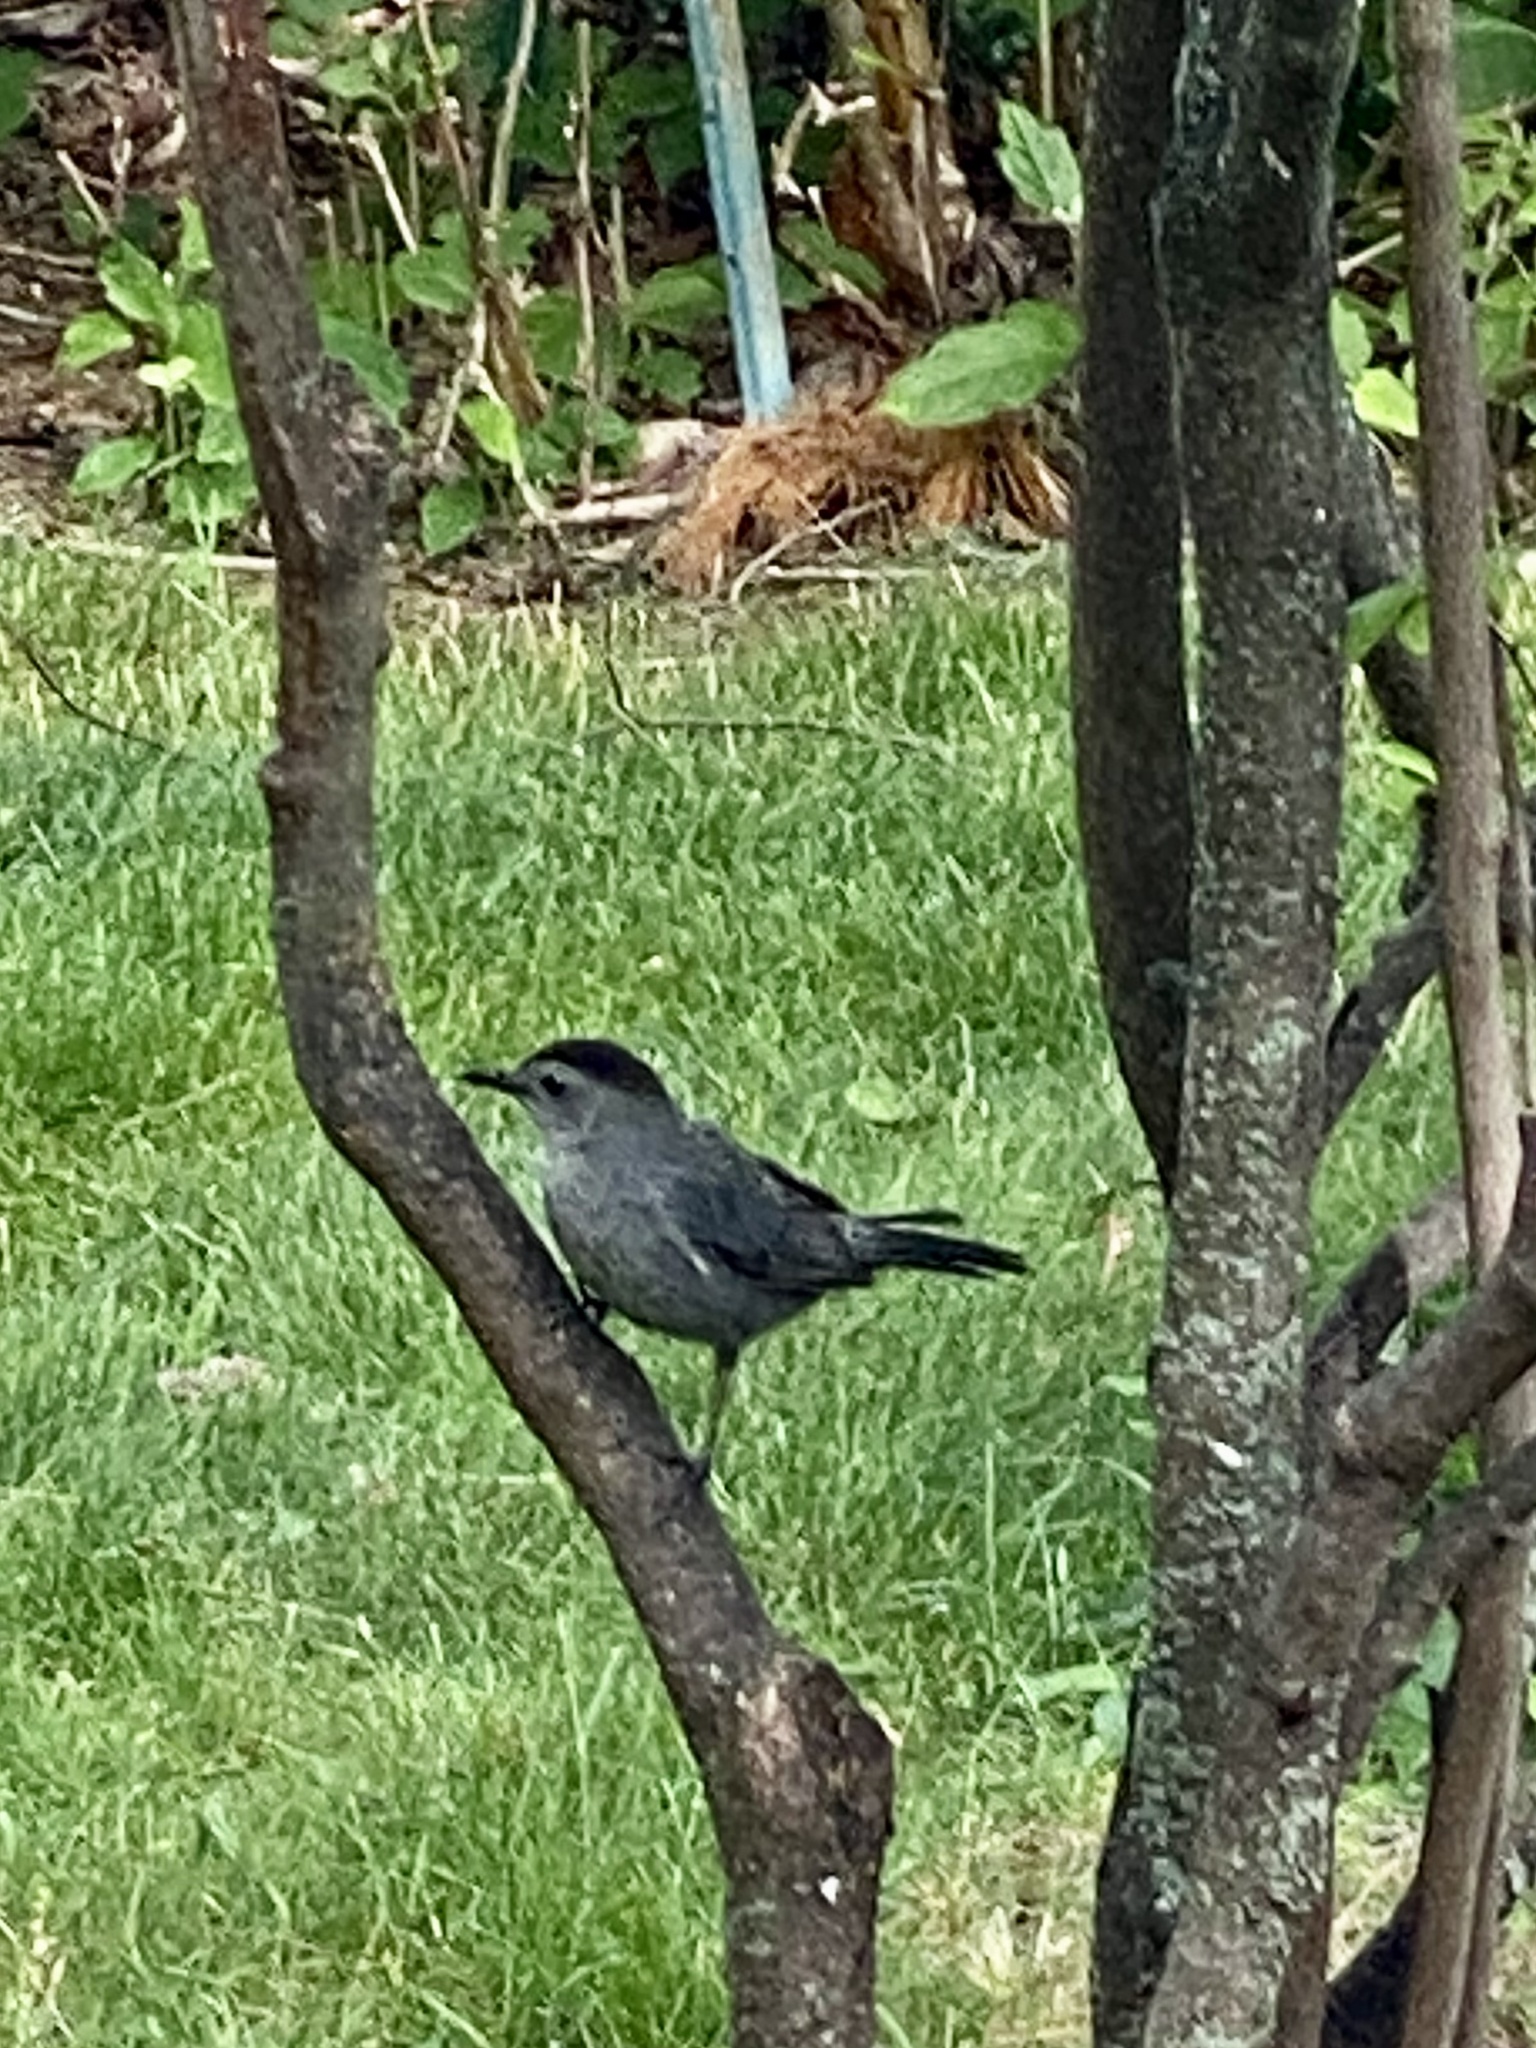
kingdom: Animalia
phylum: Chordata
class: Aves
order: Passeriformes
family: Mimidae
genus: Dumetella
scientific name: Dumetella carolinensis
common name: Gray catbird
